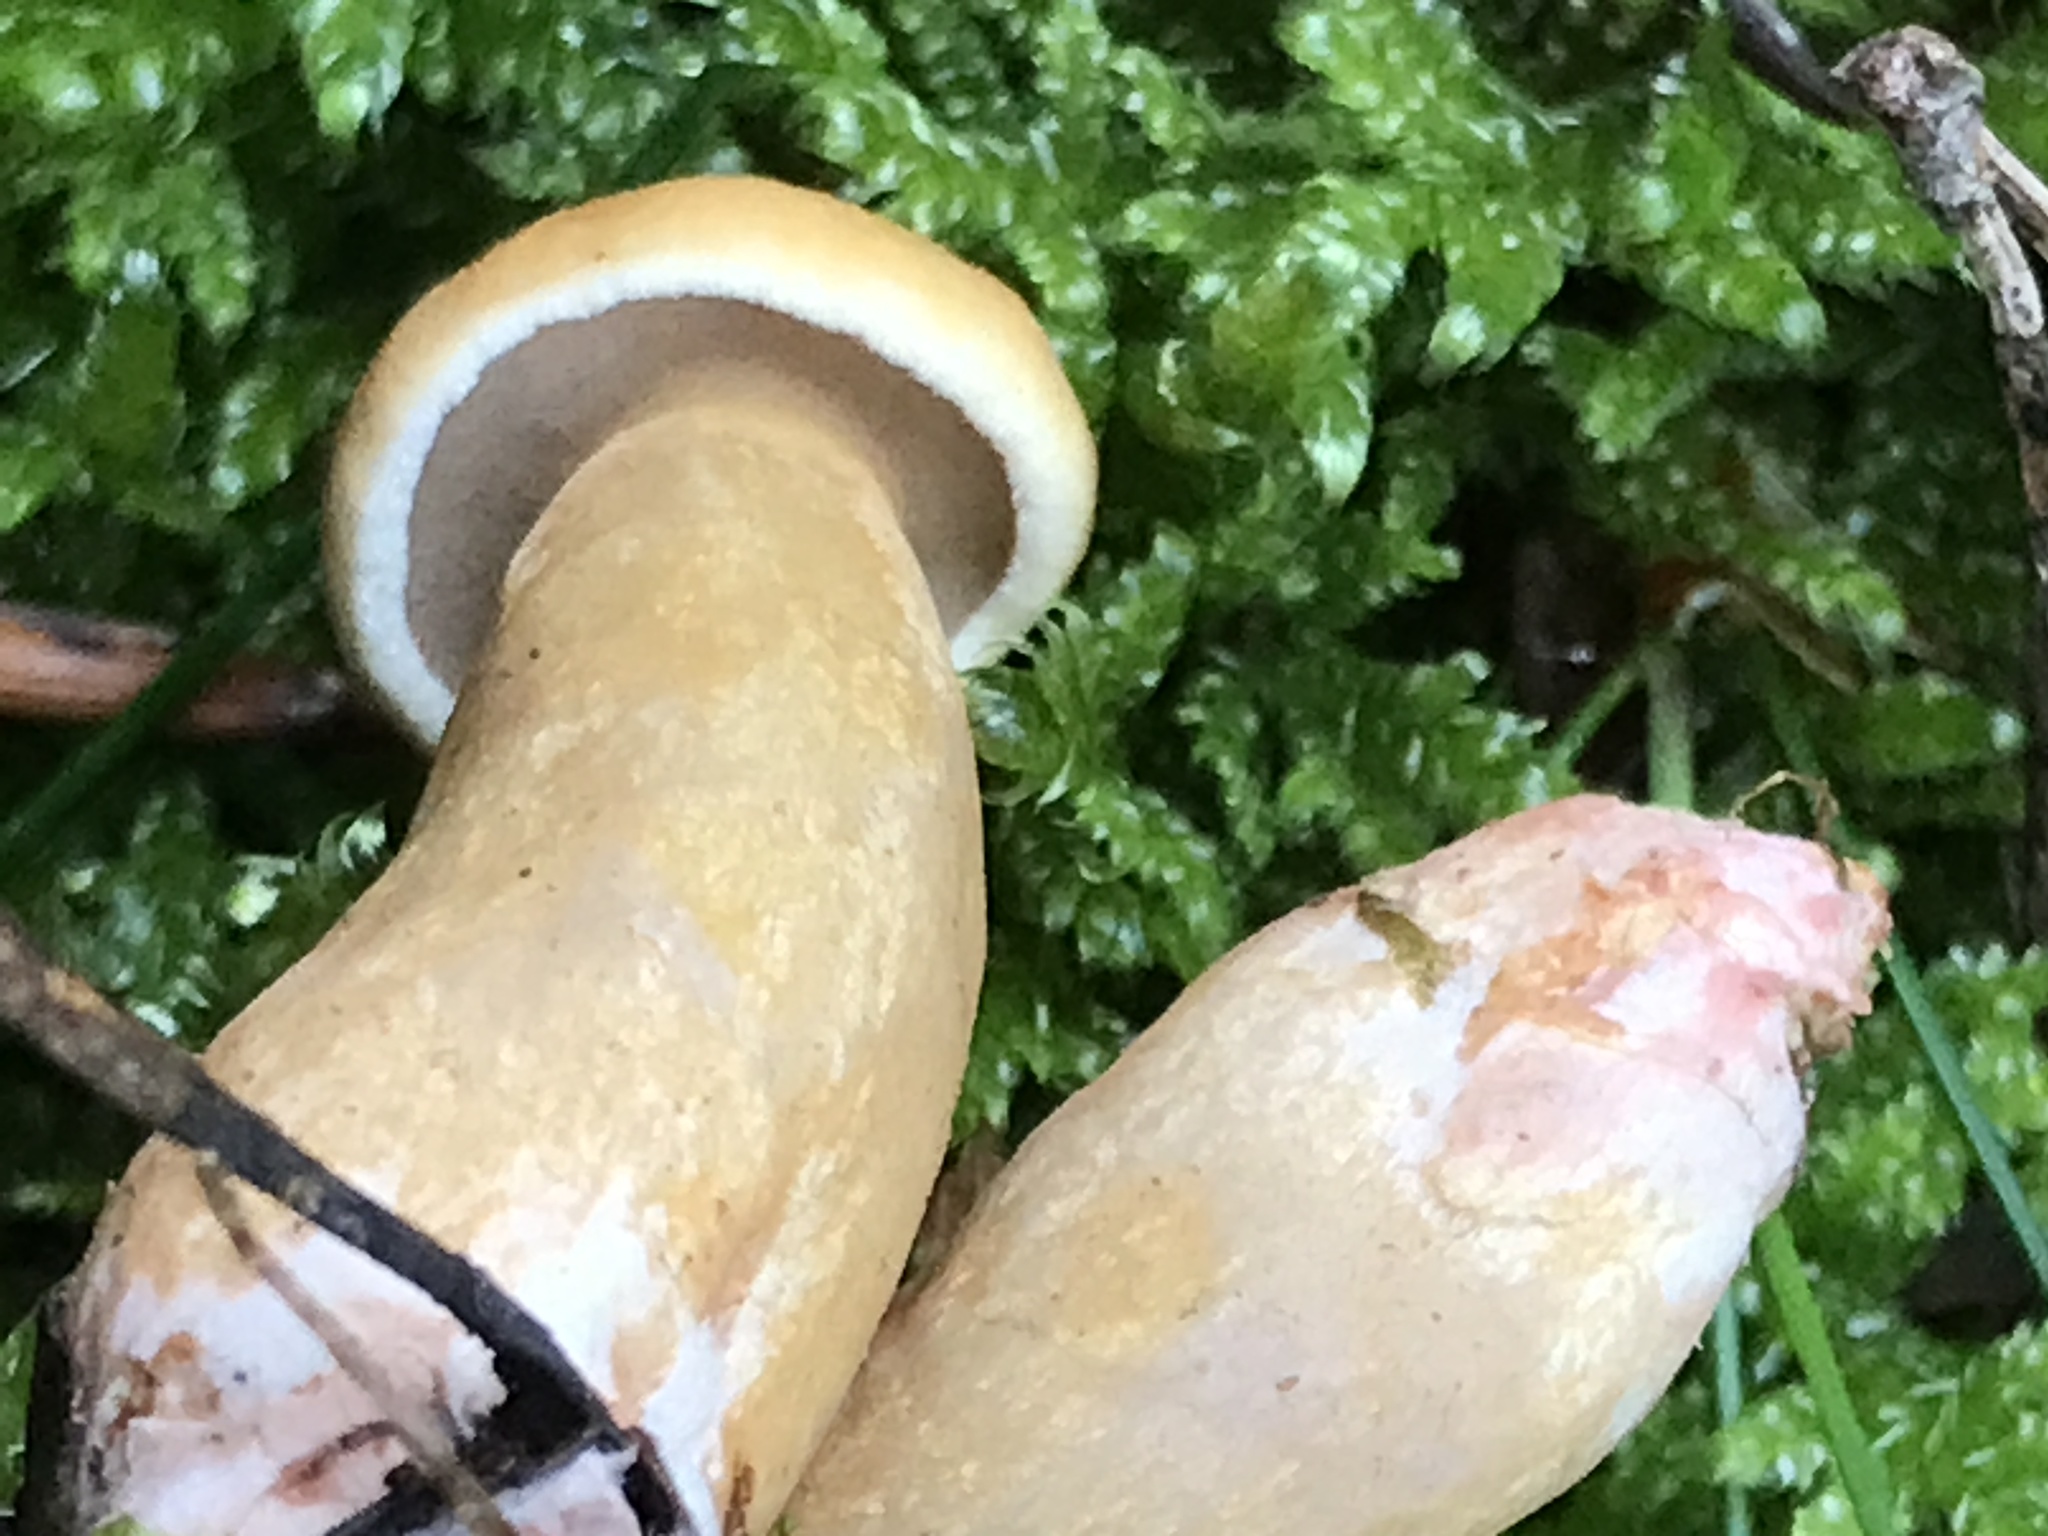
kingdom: Fungi
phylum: Basidiomycota
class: Agaricomycetes
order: Boletales
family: Suillaceae
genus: Suillus
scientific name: Suillus bovinus
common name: Bovine bolete
